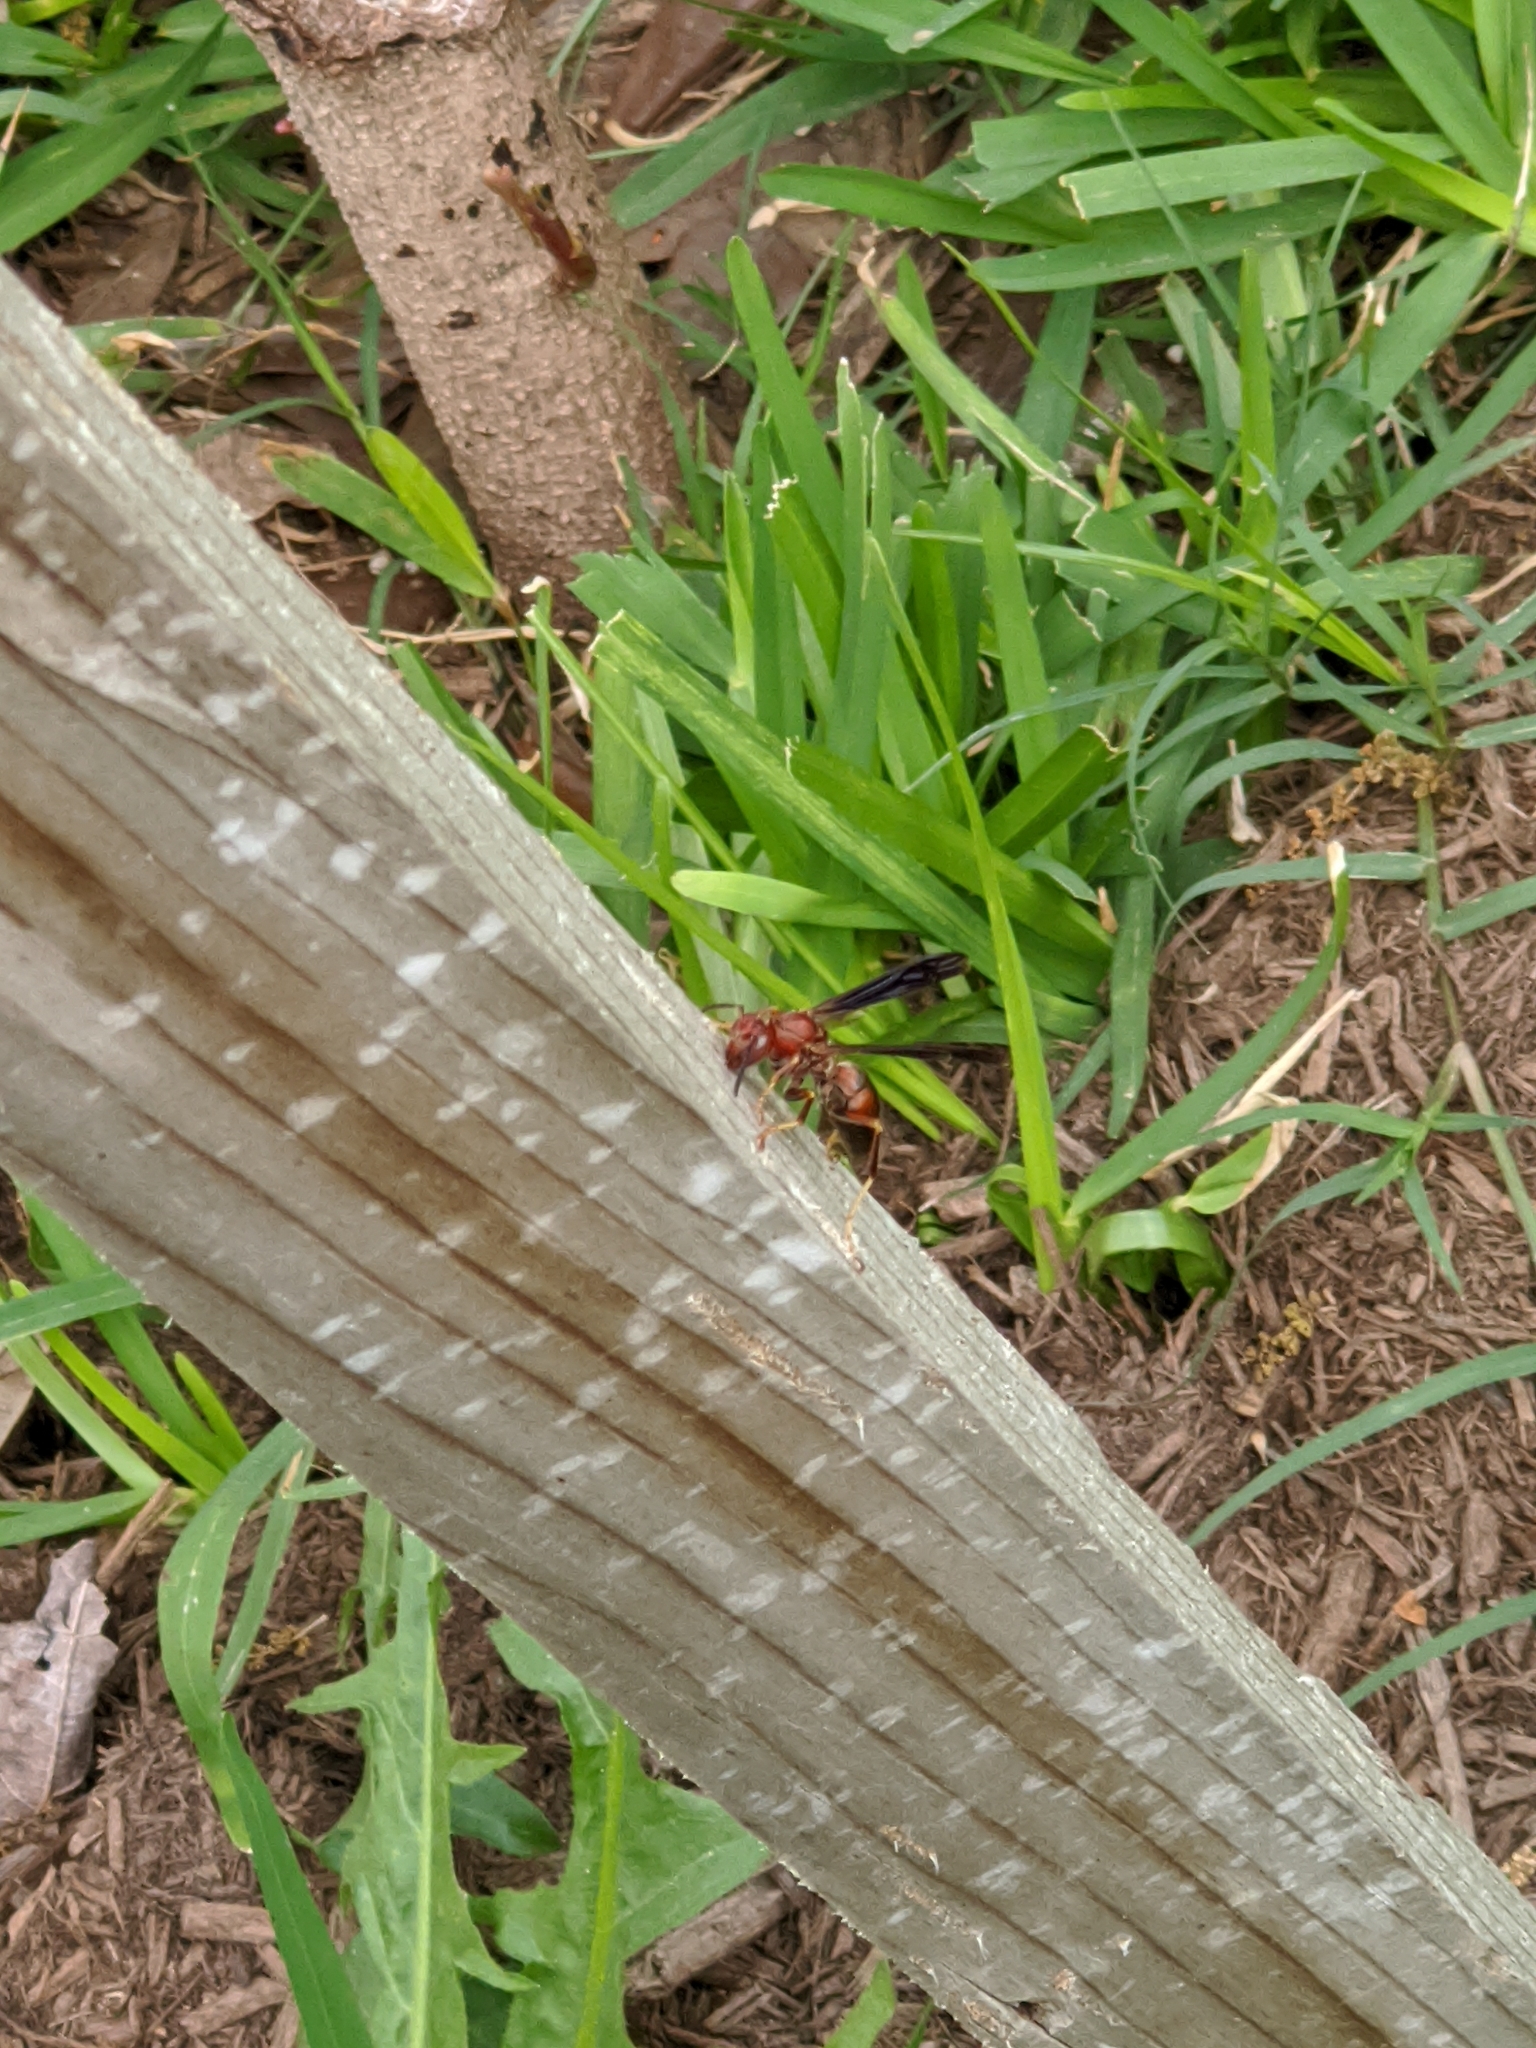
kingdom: Animalia
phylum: Arthropoda
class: Insecta
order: Hymenoptera
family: Eumenidae
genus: Polistes
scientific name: Polistes metricus
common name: Metric paper wasp
